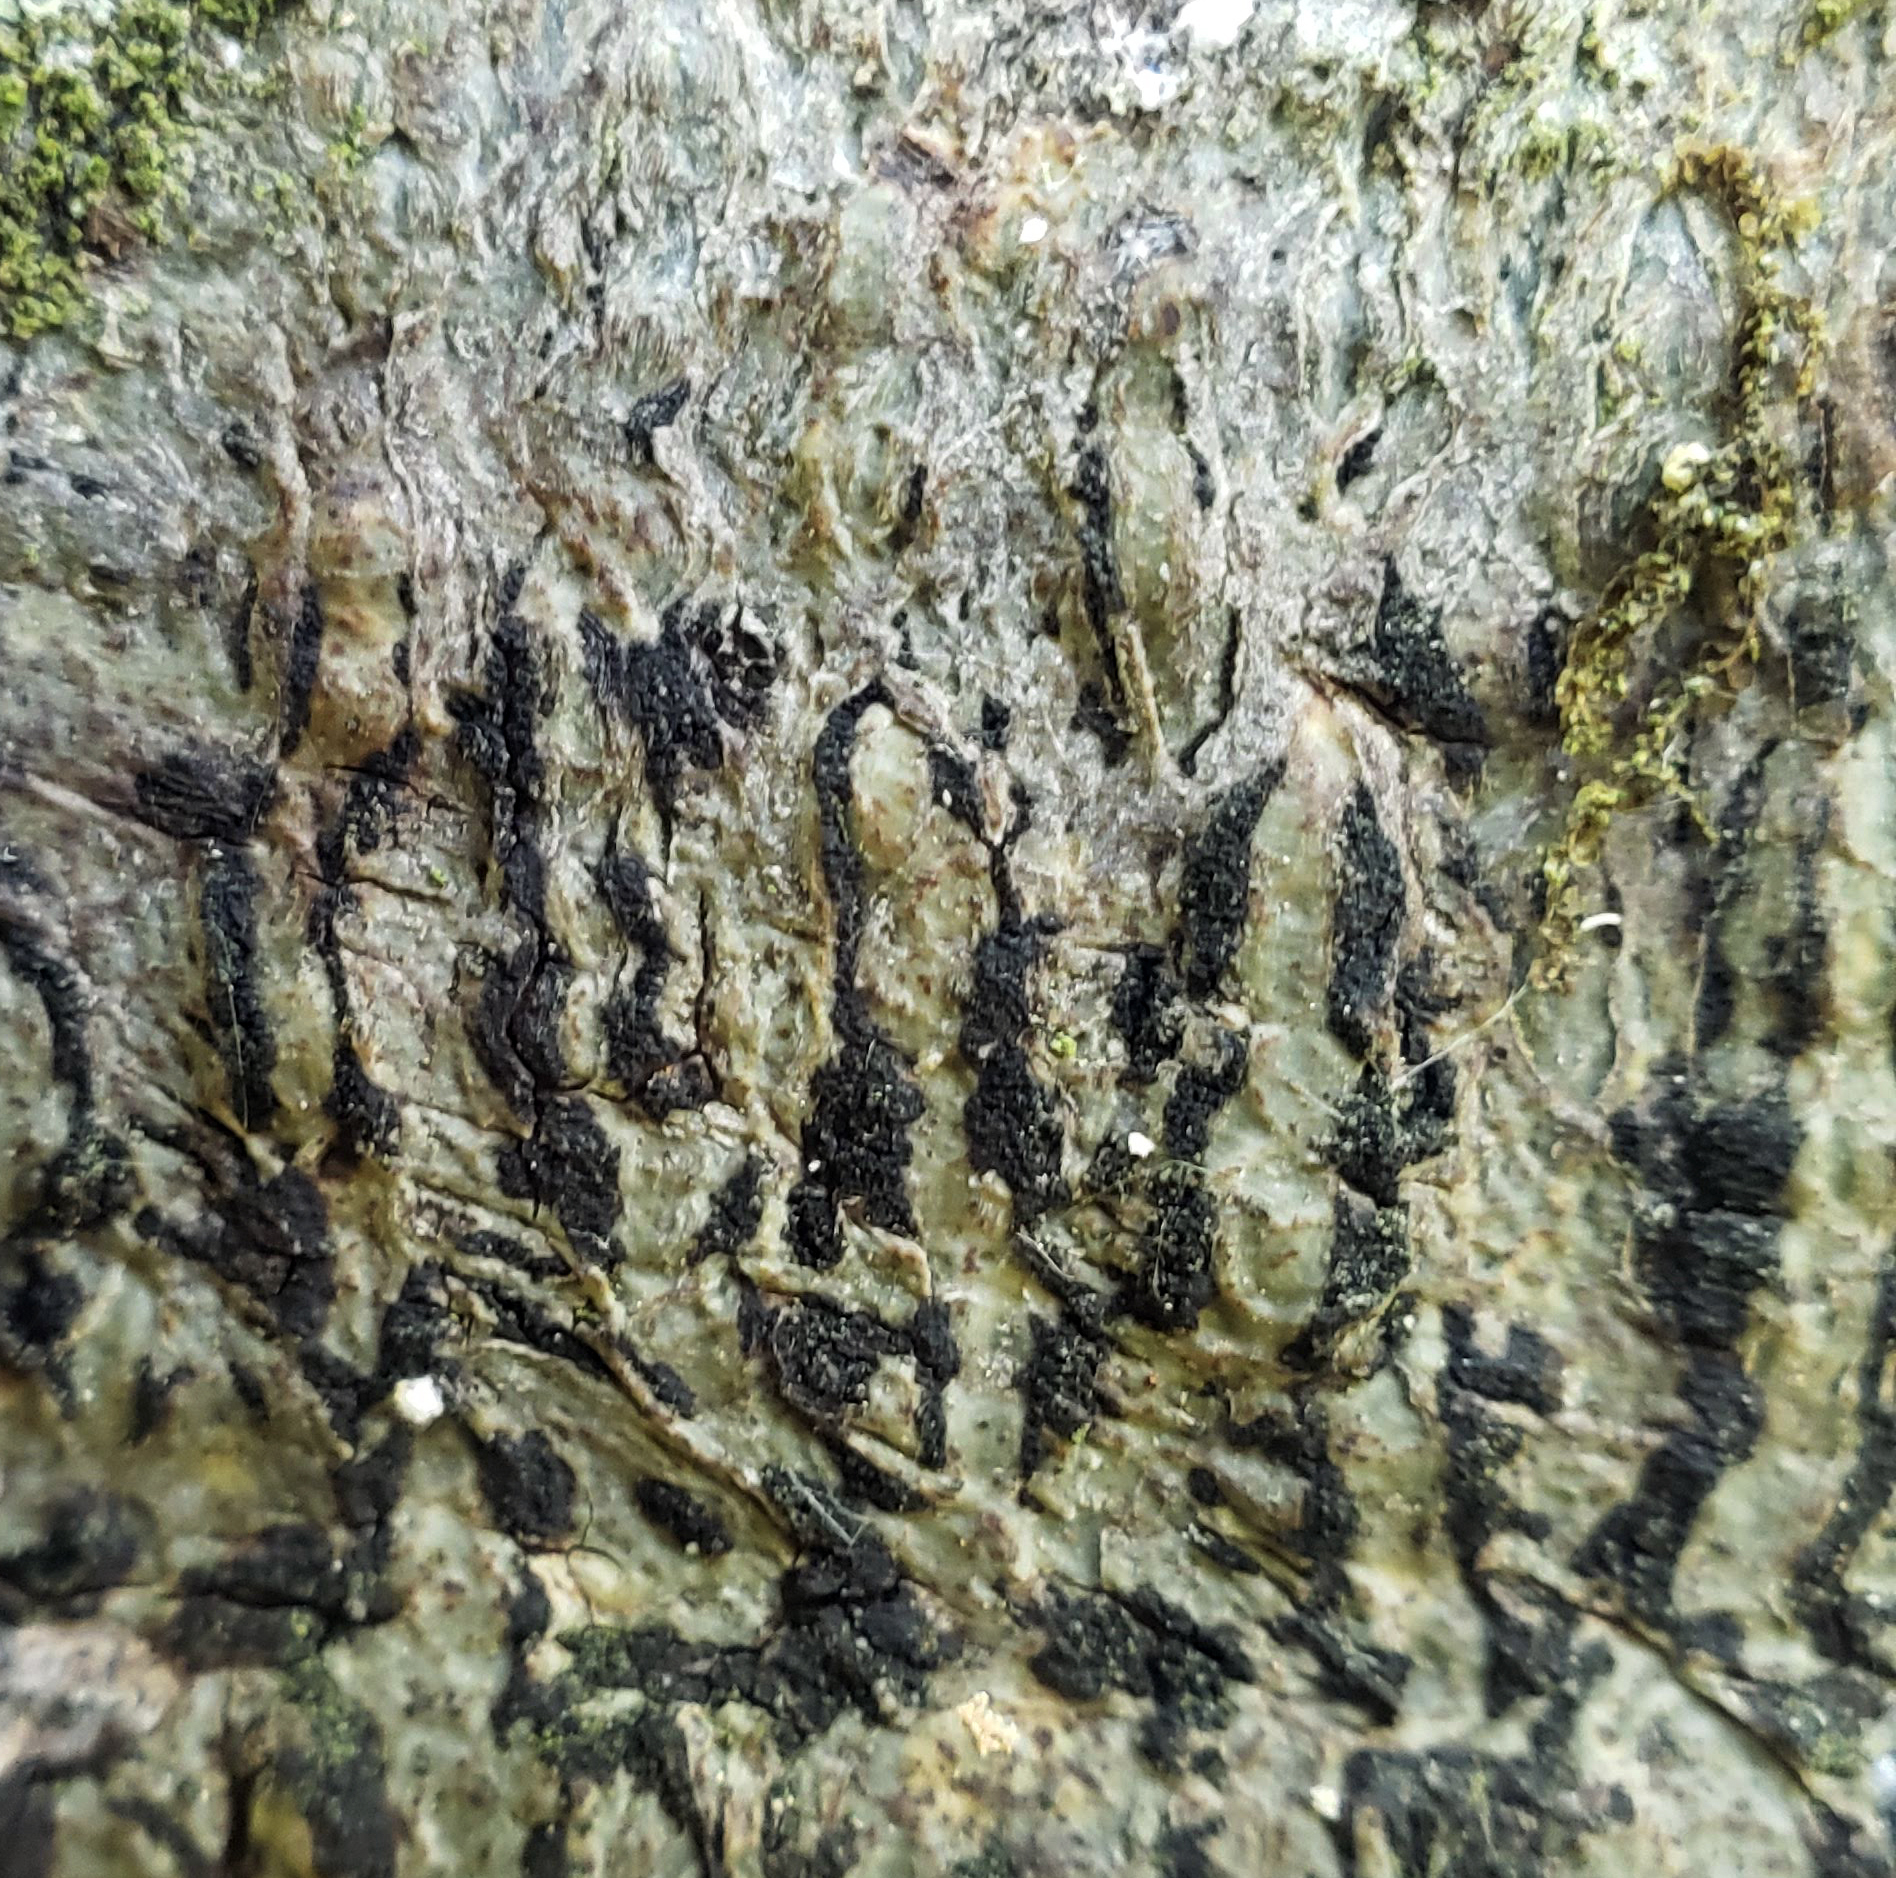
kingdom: Fungi
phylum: Ascomycota
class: Dothideomycetes
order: Trypetheliales
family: Trypetheliaceae
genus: Viridothelium
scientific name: Viridothelium virens
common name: Speckled blister lichen
